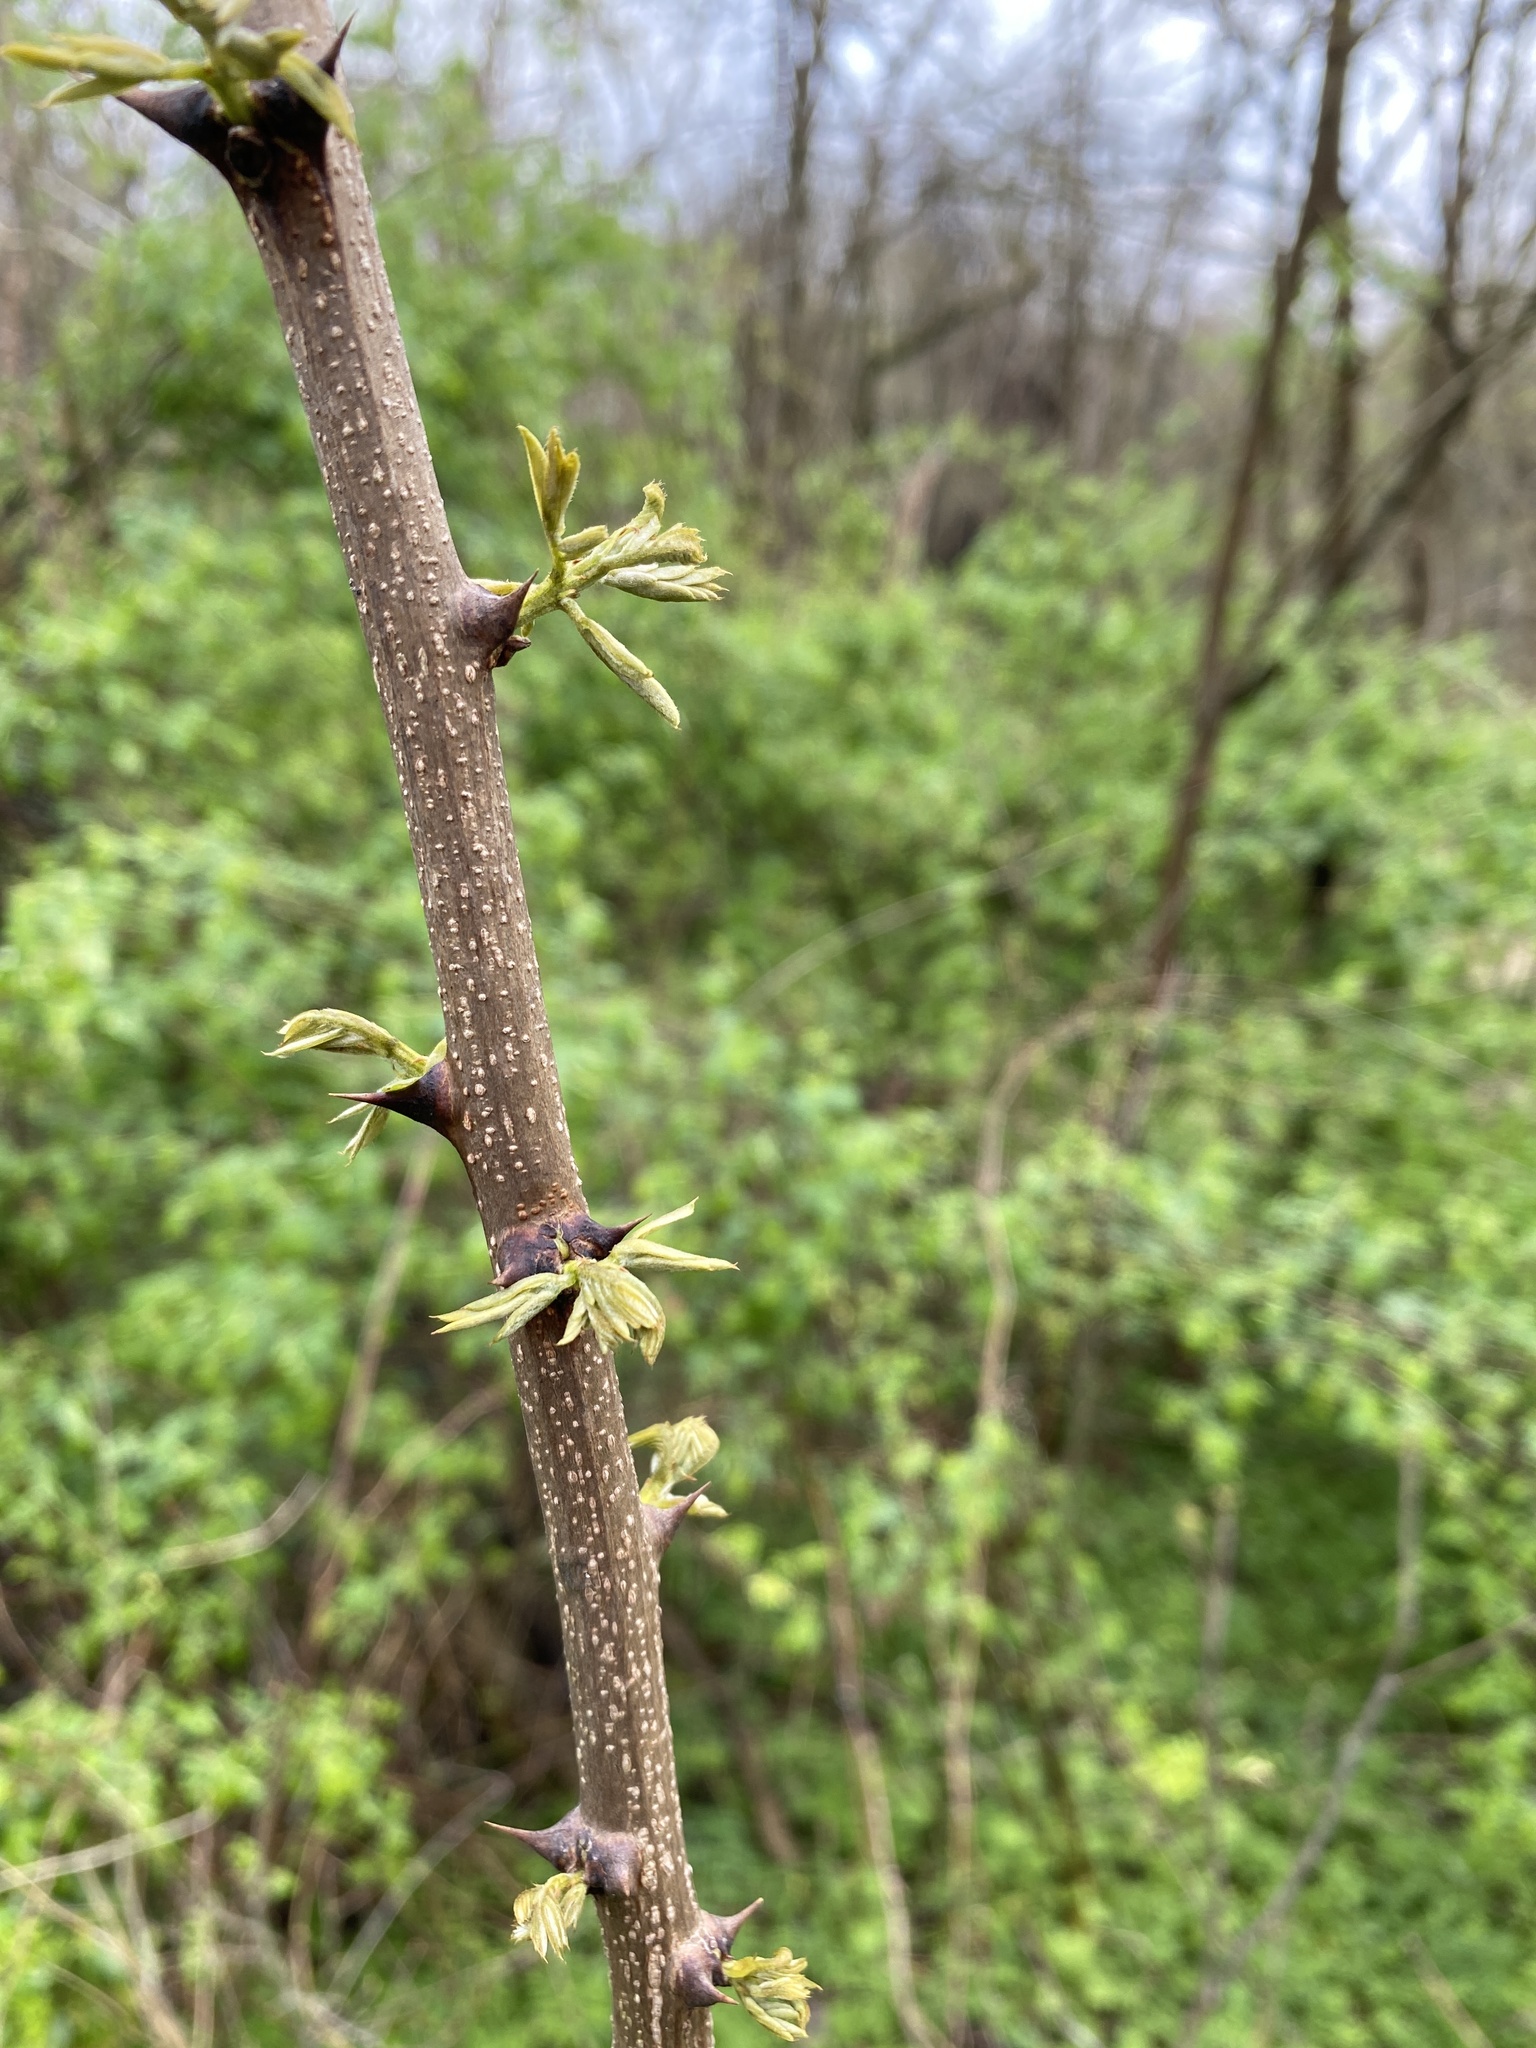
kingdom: Plantae
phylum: Tracheophyta
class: Magnoliopsida
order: Fabales
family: Fabaceae
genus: Robinia
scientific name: Robinia pseudoacacia
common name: Black locust
